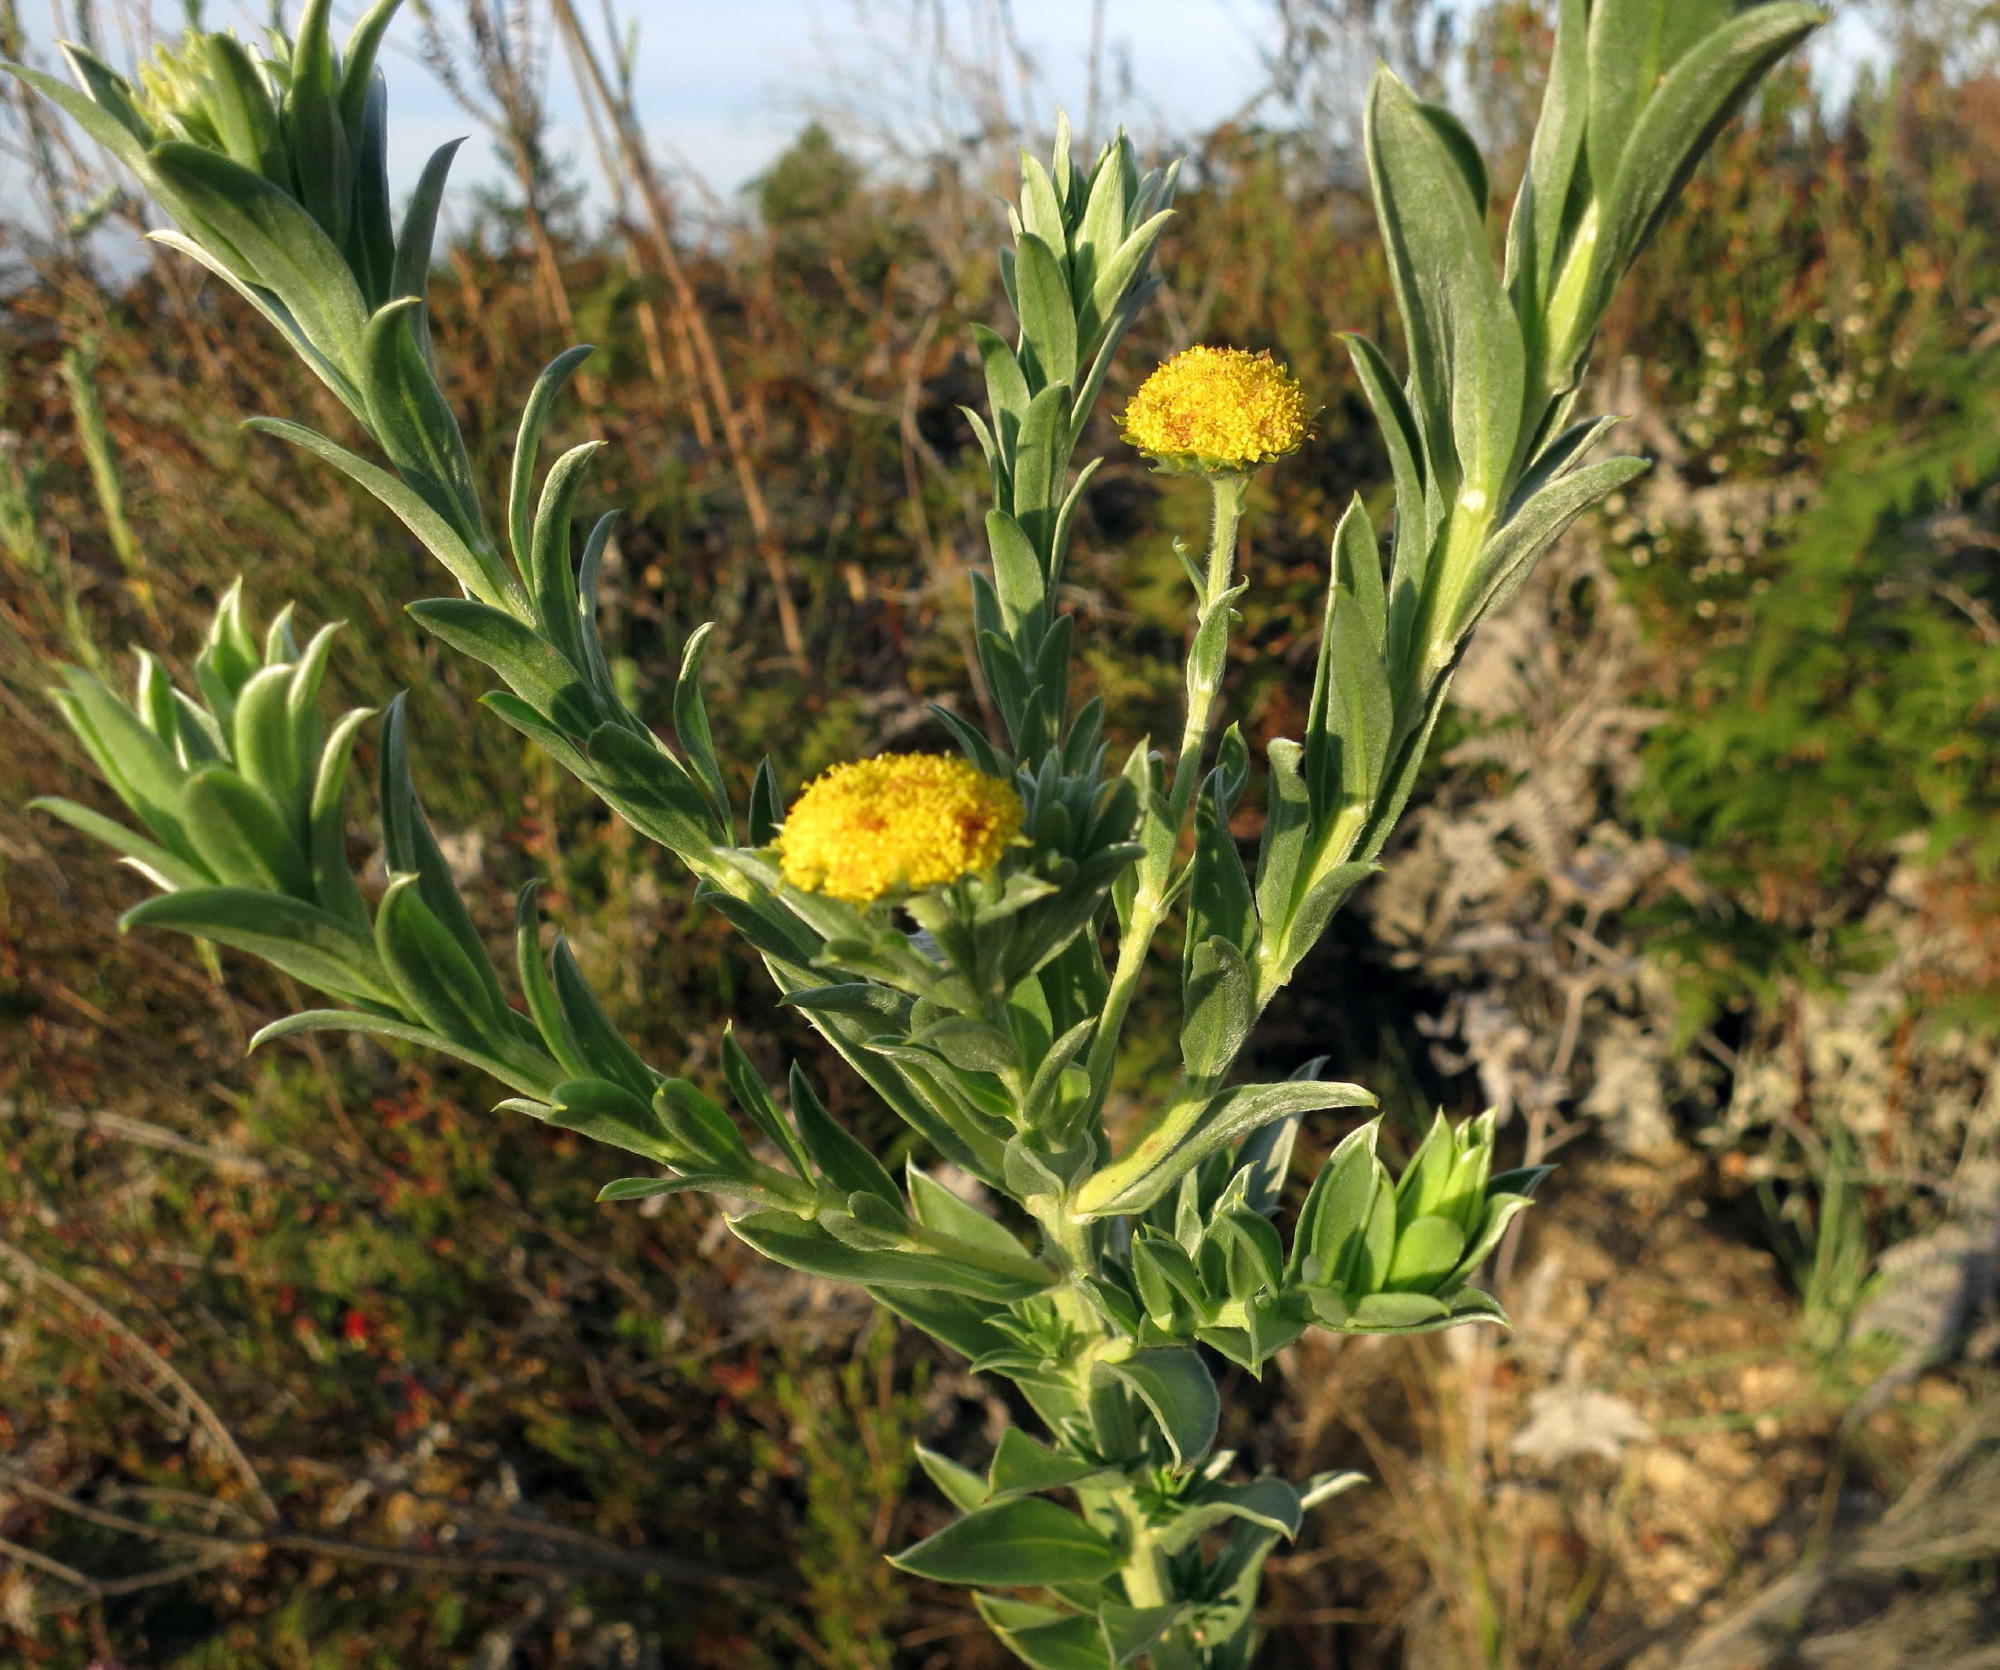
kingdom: Plantae
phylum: Tracheophyta
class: Magnoliopsida
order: Asterales
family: Asteraceae
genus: Schistostephium
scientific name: Schistostephium umbellatum
